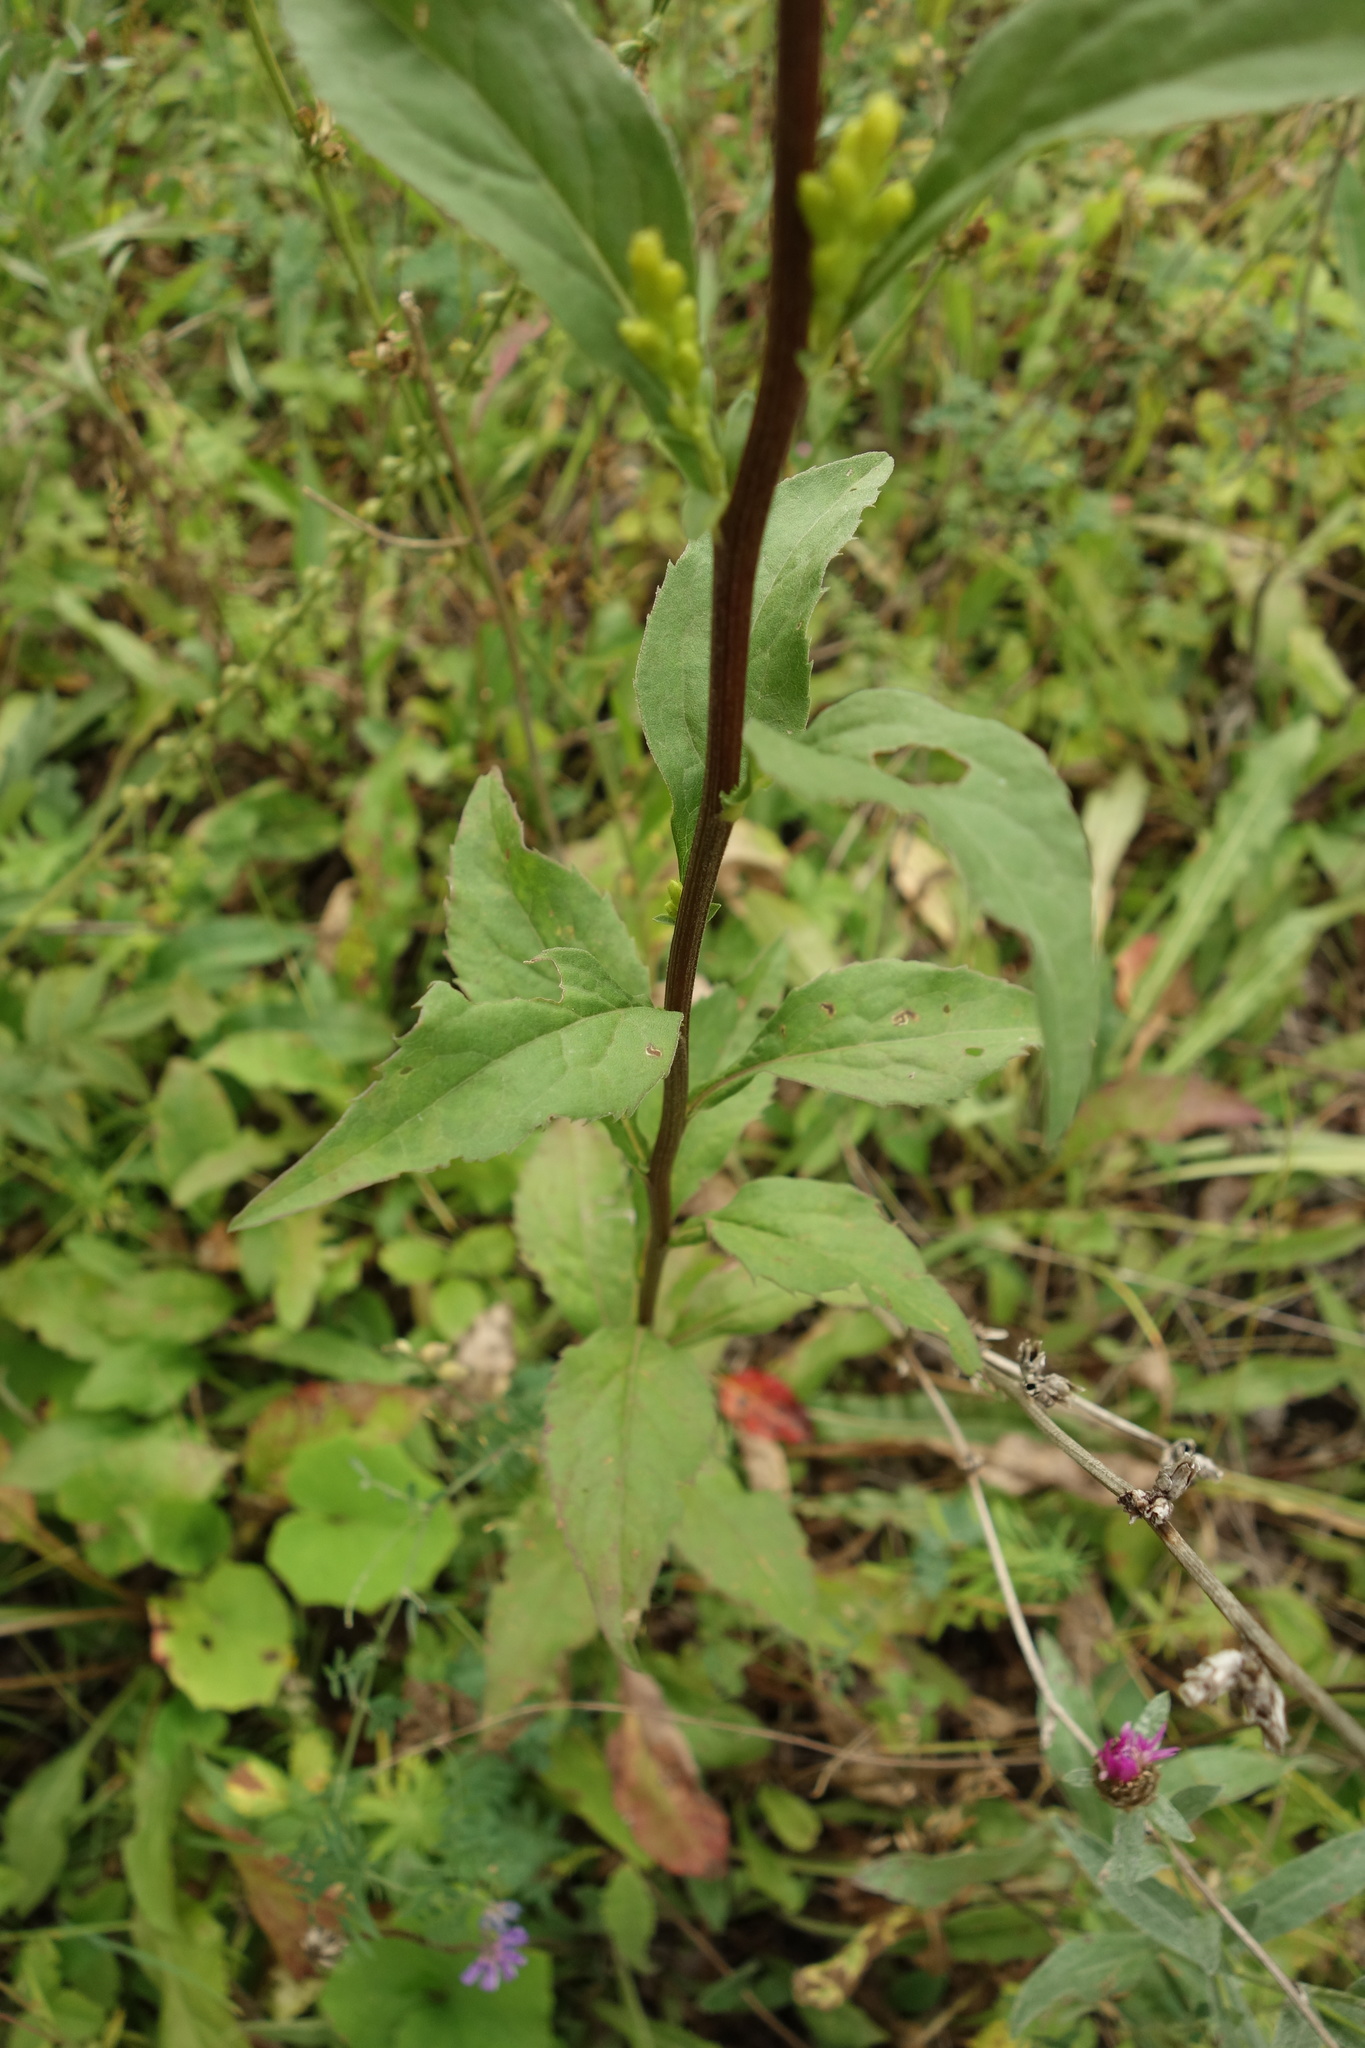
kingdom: Plantae
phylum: Tracheophyta
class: Magnoliopsida
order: Asterales
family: Asteraceae
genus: Solidago
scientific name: Solidago virgaurea
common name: Goldenrod
